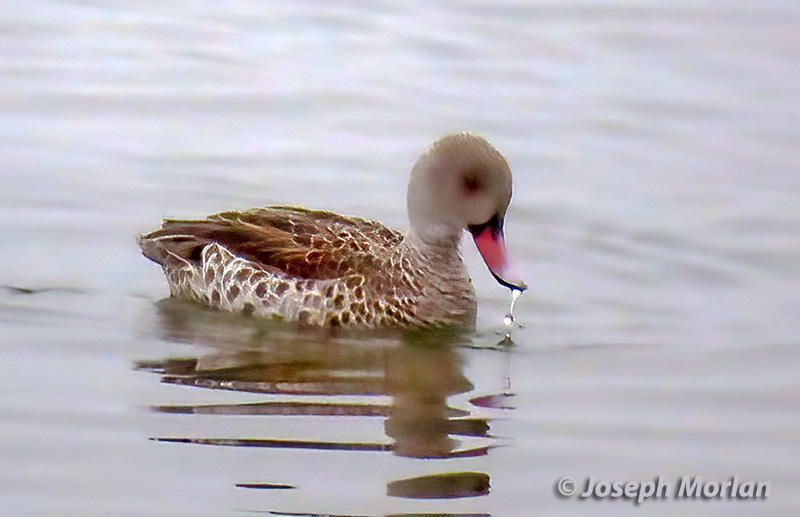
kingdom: Animalia
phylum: Chordata
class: Aves
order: Anseriformes
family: Anatidae
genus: Anas
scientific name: Anas capensis
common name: Cape teal
